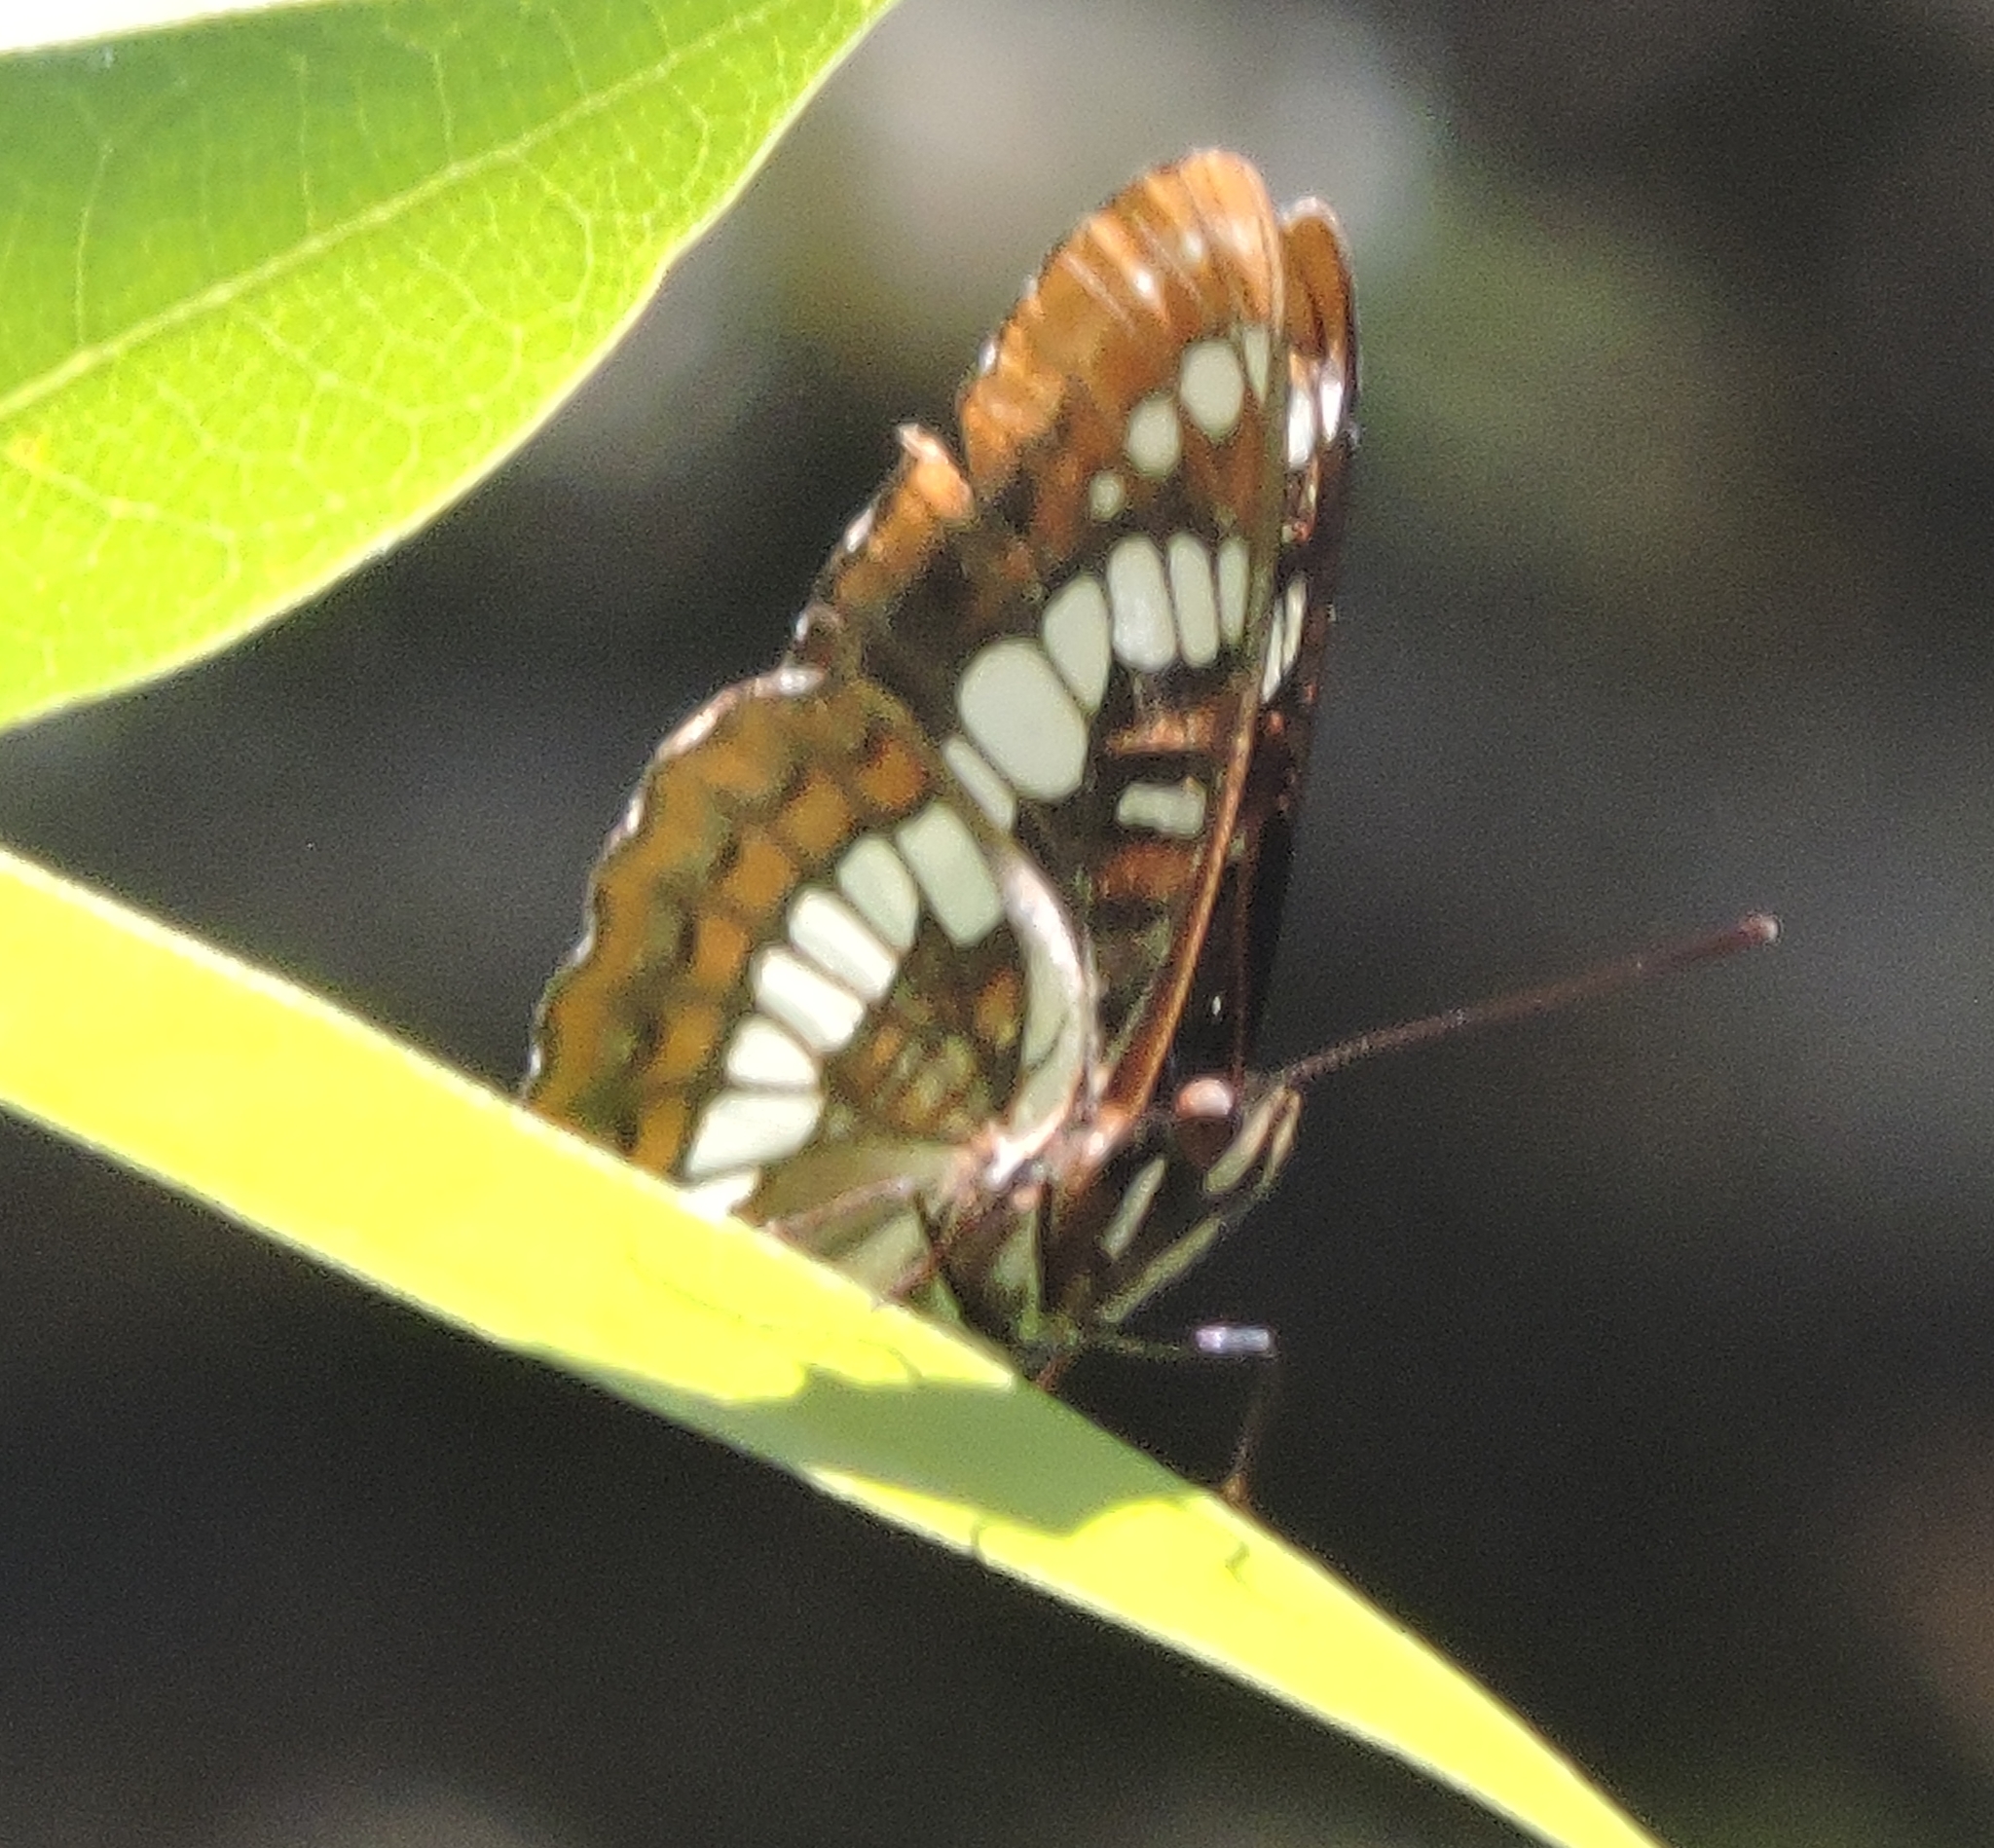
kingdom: Animalia
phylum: Arthropoda
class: Insecta
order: Lepidoptera
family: Nymphalidae
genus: Limenitis
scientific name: Limenitis lorquini
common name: Lorquin's admiral
